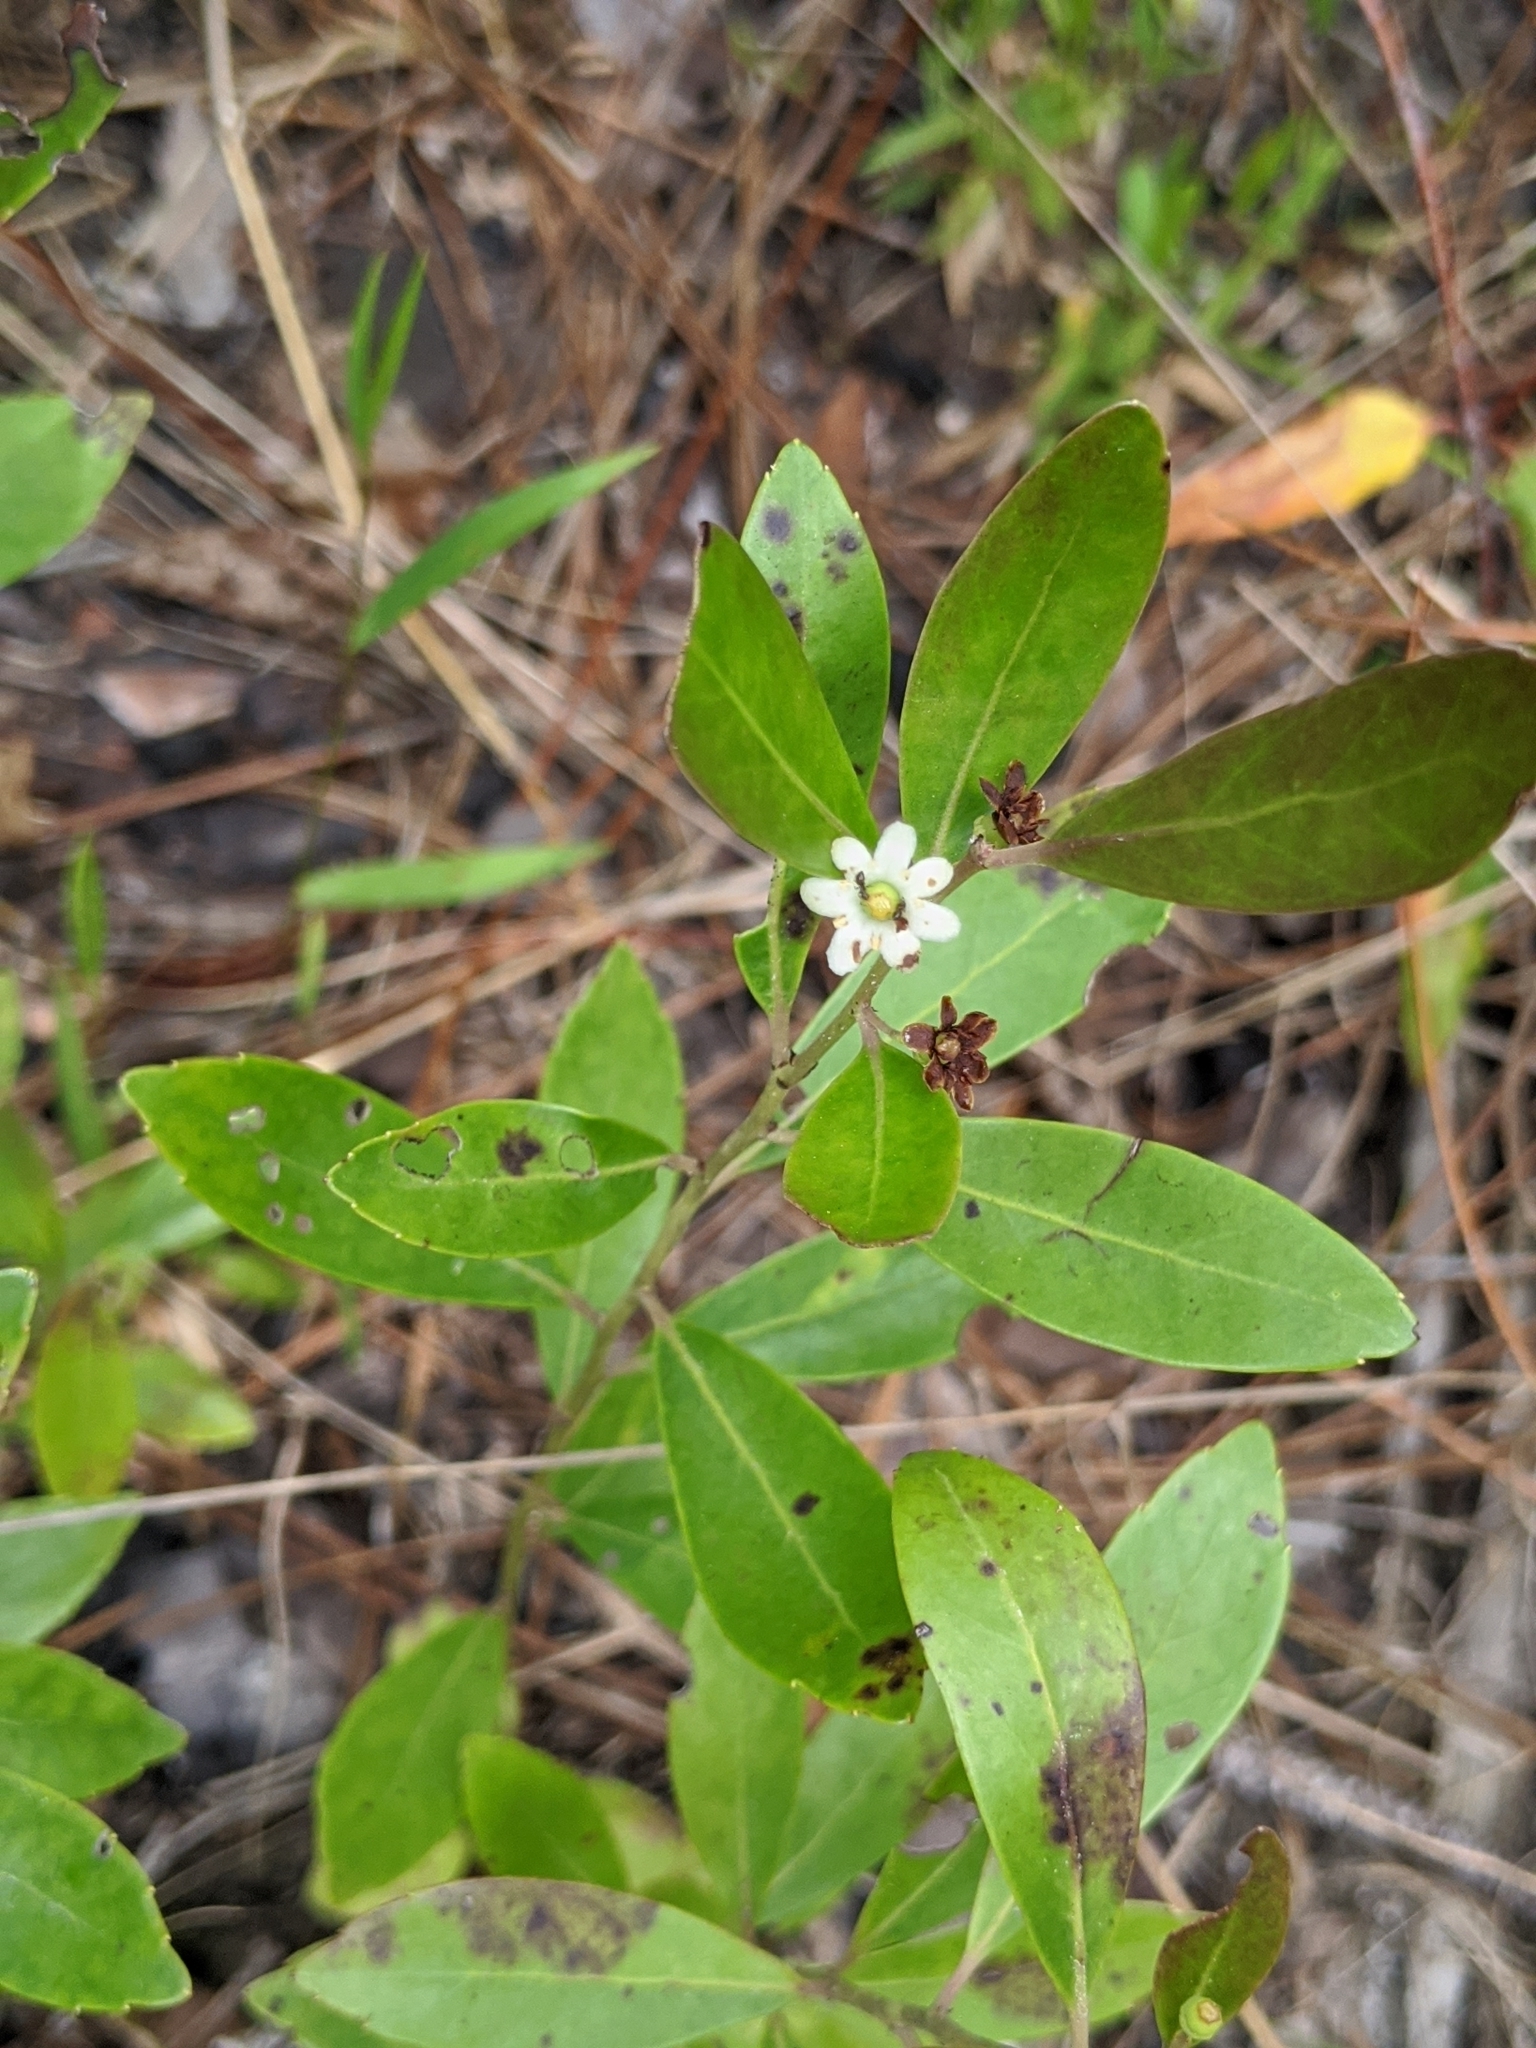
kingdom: Plantae
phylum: Tracheophyta
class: Magnoliopsida
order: Aquifoliales
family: Aquifoliaceae
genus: Ilex
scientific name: Ilex glabra
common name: Bitter gallberry
